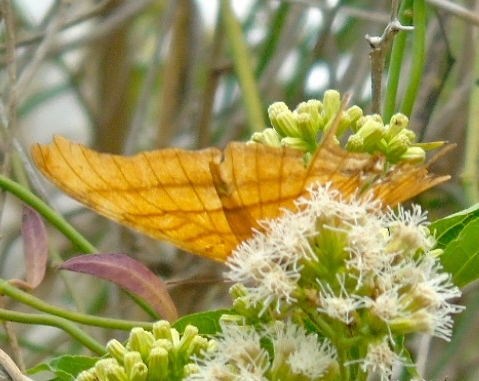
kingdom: Animalia
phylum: Arthropoda
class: Insecta
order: Lepidoptera
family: Nymphalidae
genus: Marpesia
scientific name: Marpesia petreus
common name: Red dagger wing
